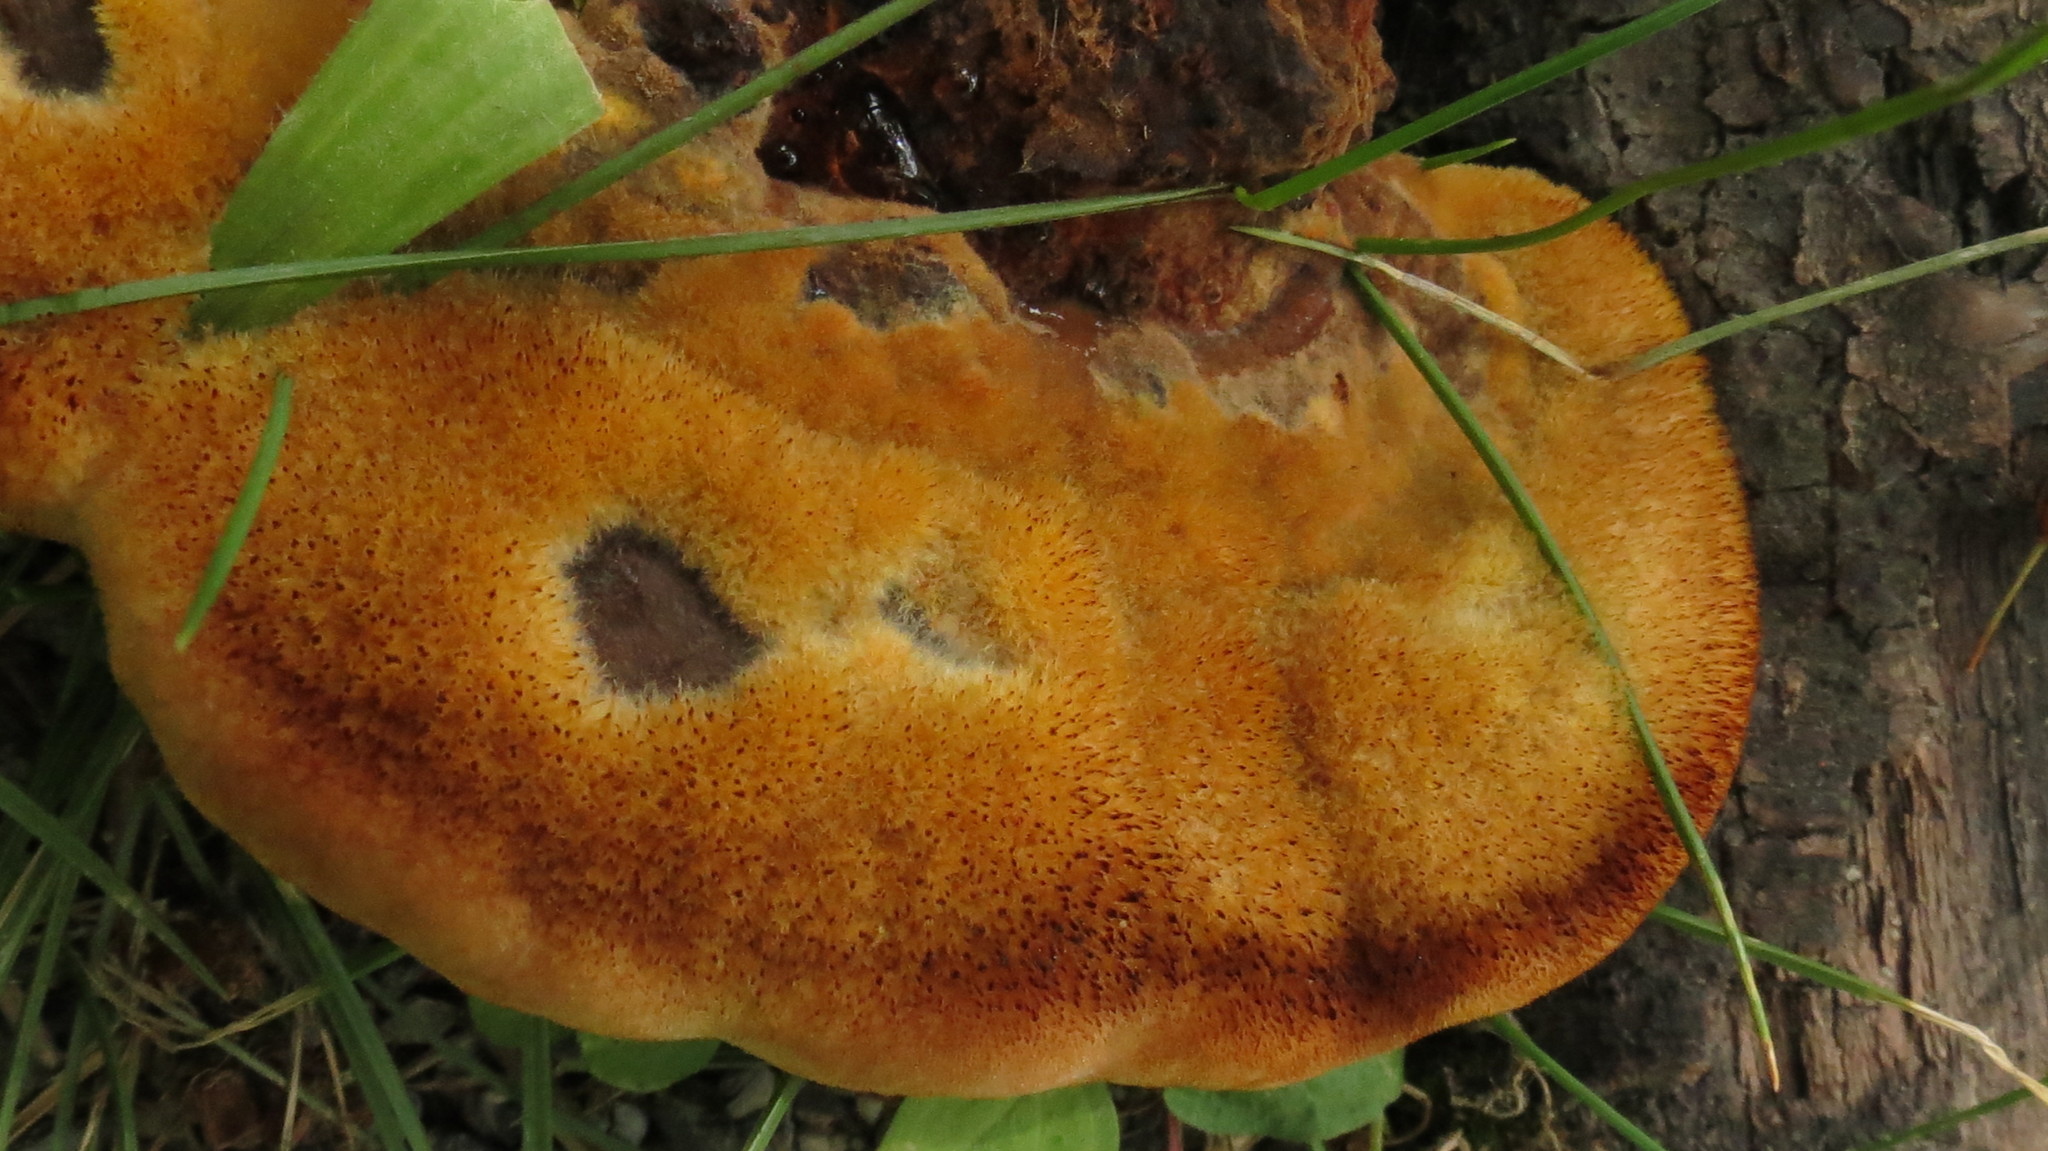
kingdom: Fungi
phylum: Basidiomycota
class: Agaricomycetes
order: Polyporales
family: Laetiporaceae
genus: Phaeolus
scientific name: Phaeolus schweinitzii
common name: Dyer's mazegill
